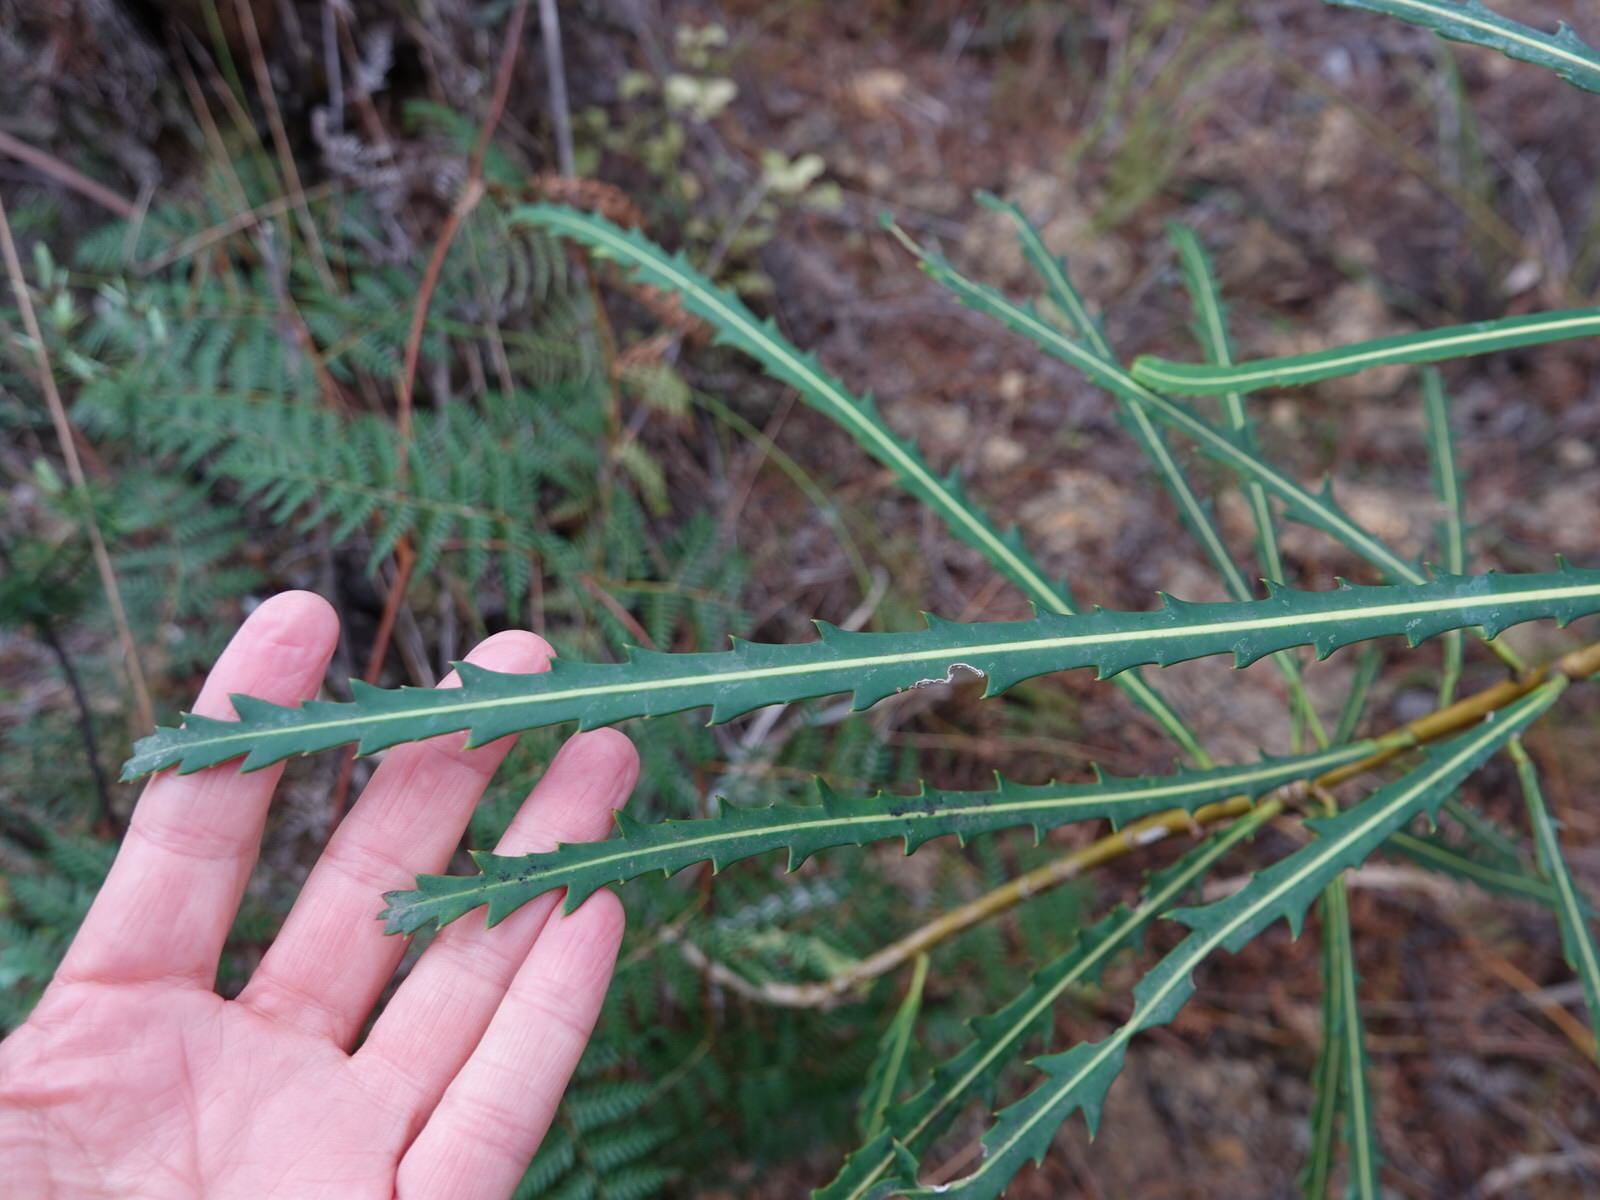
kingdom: Plantae
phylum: Tracheophyta
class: Magnoliopsida
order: Apiales
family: Araliaceae
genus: Pseudopanax
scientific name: Pseudopanax crassifolius
